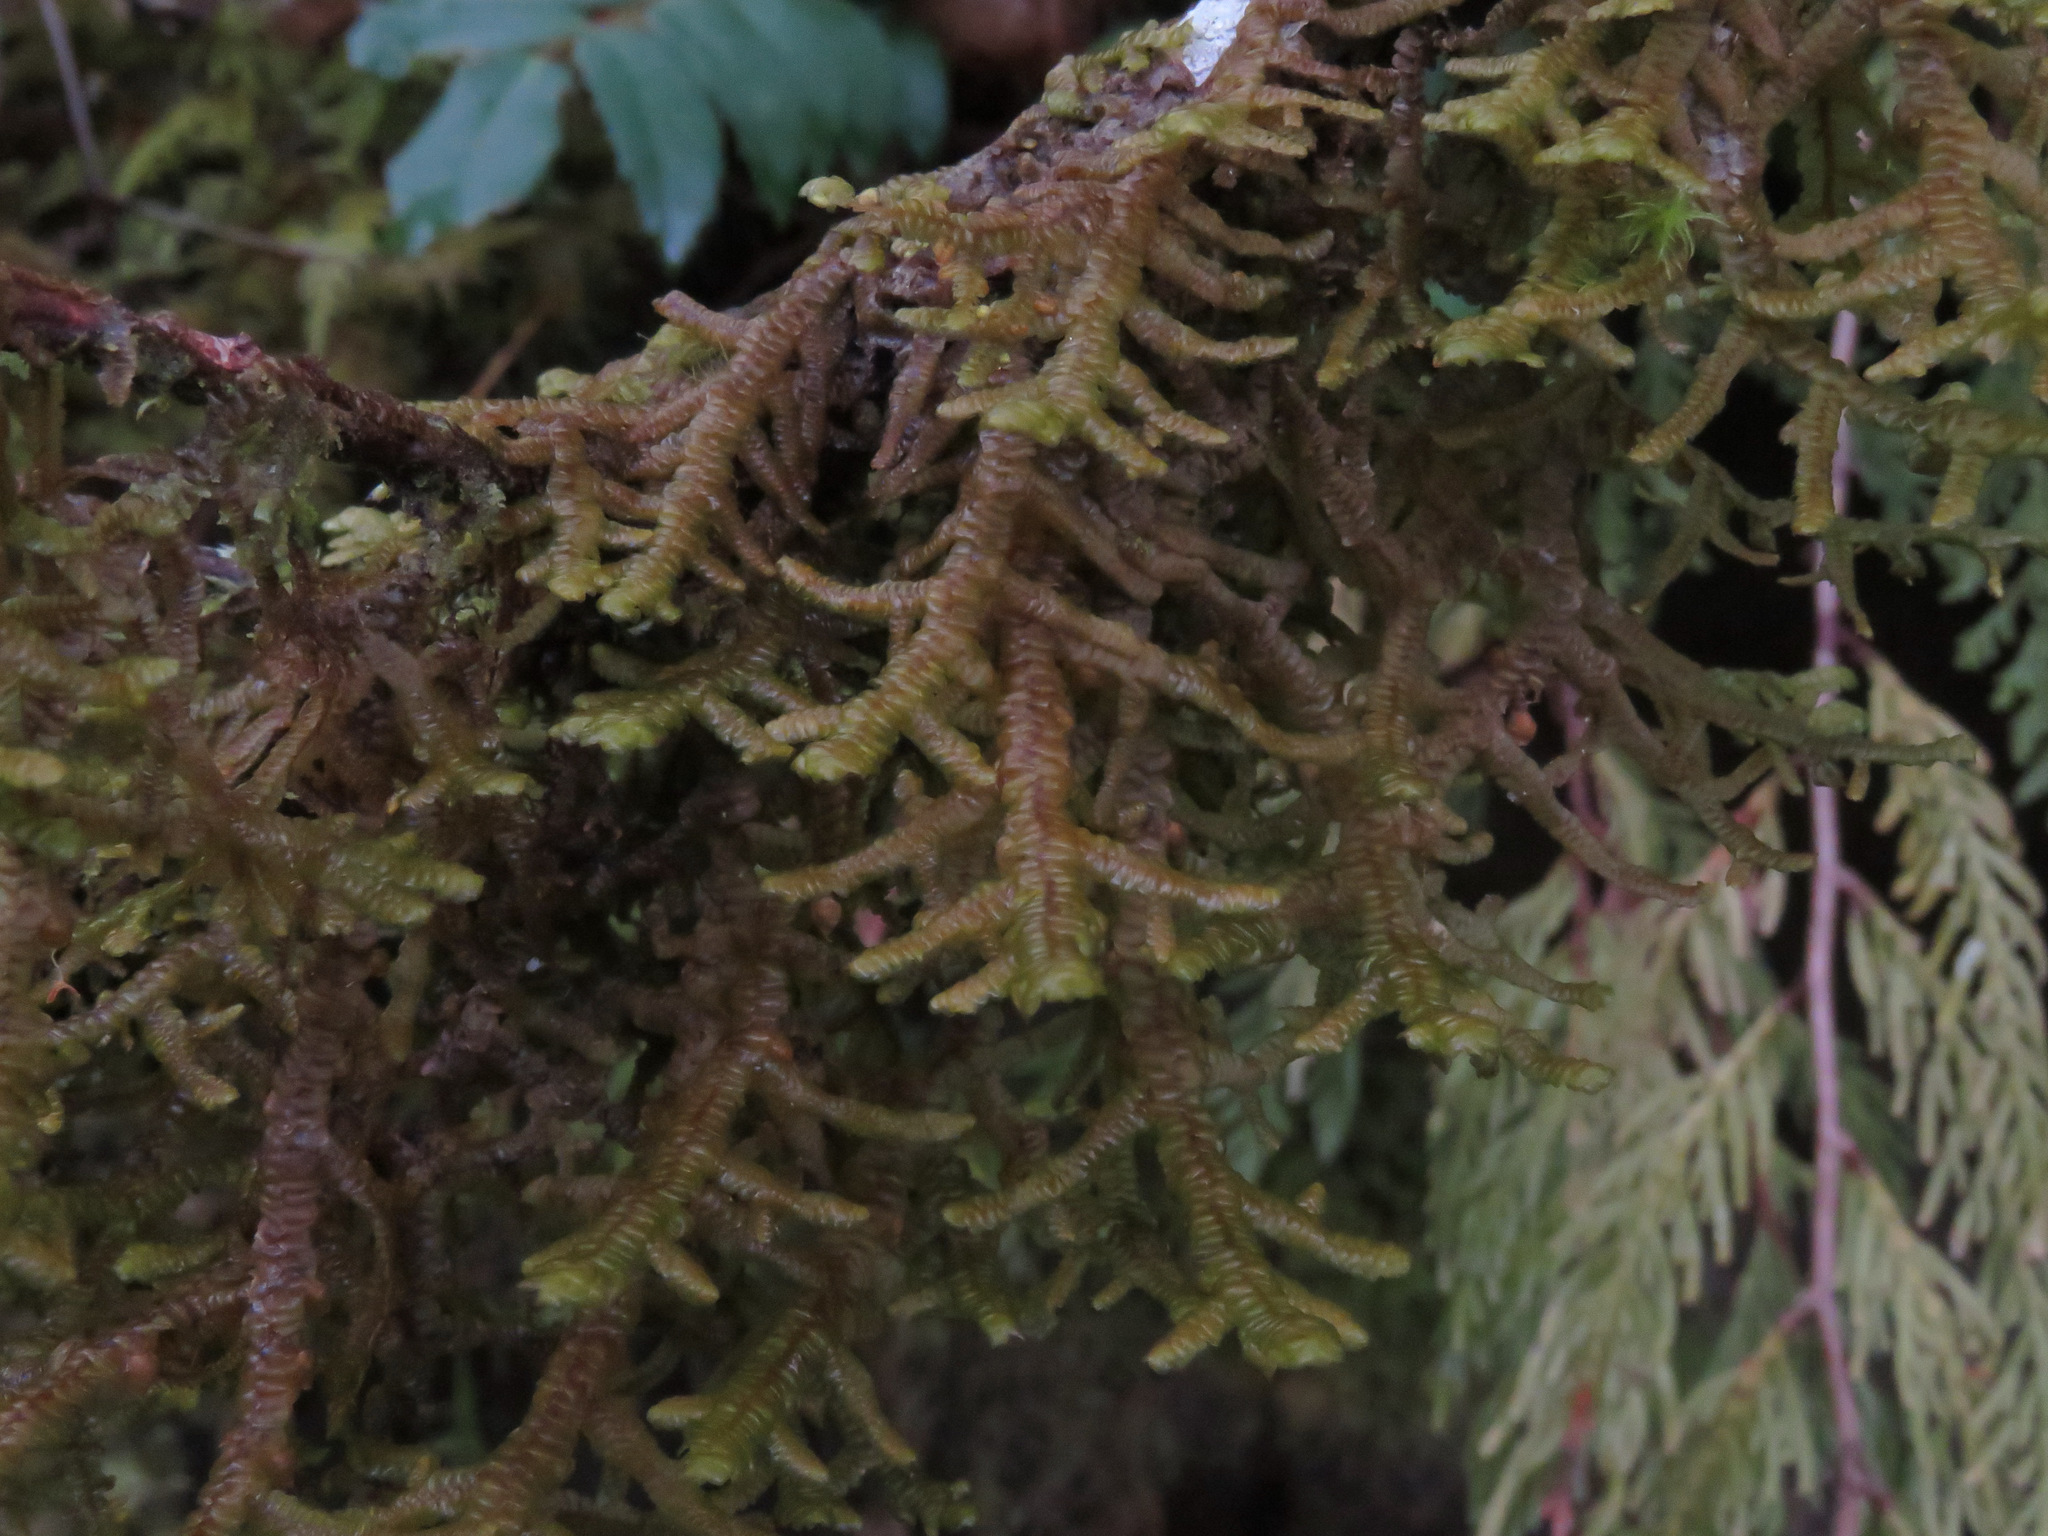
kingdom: Plantae
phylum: Marchantiophyta
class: Jungermanniopsida
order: Porellales
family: Porellaceae
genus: Porella
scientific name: Porella navicularis
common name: Tree ruffle liverwort
